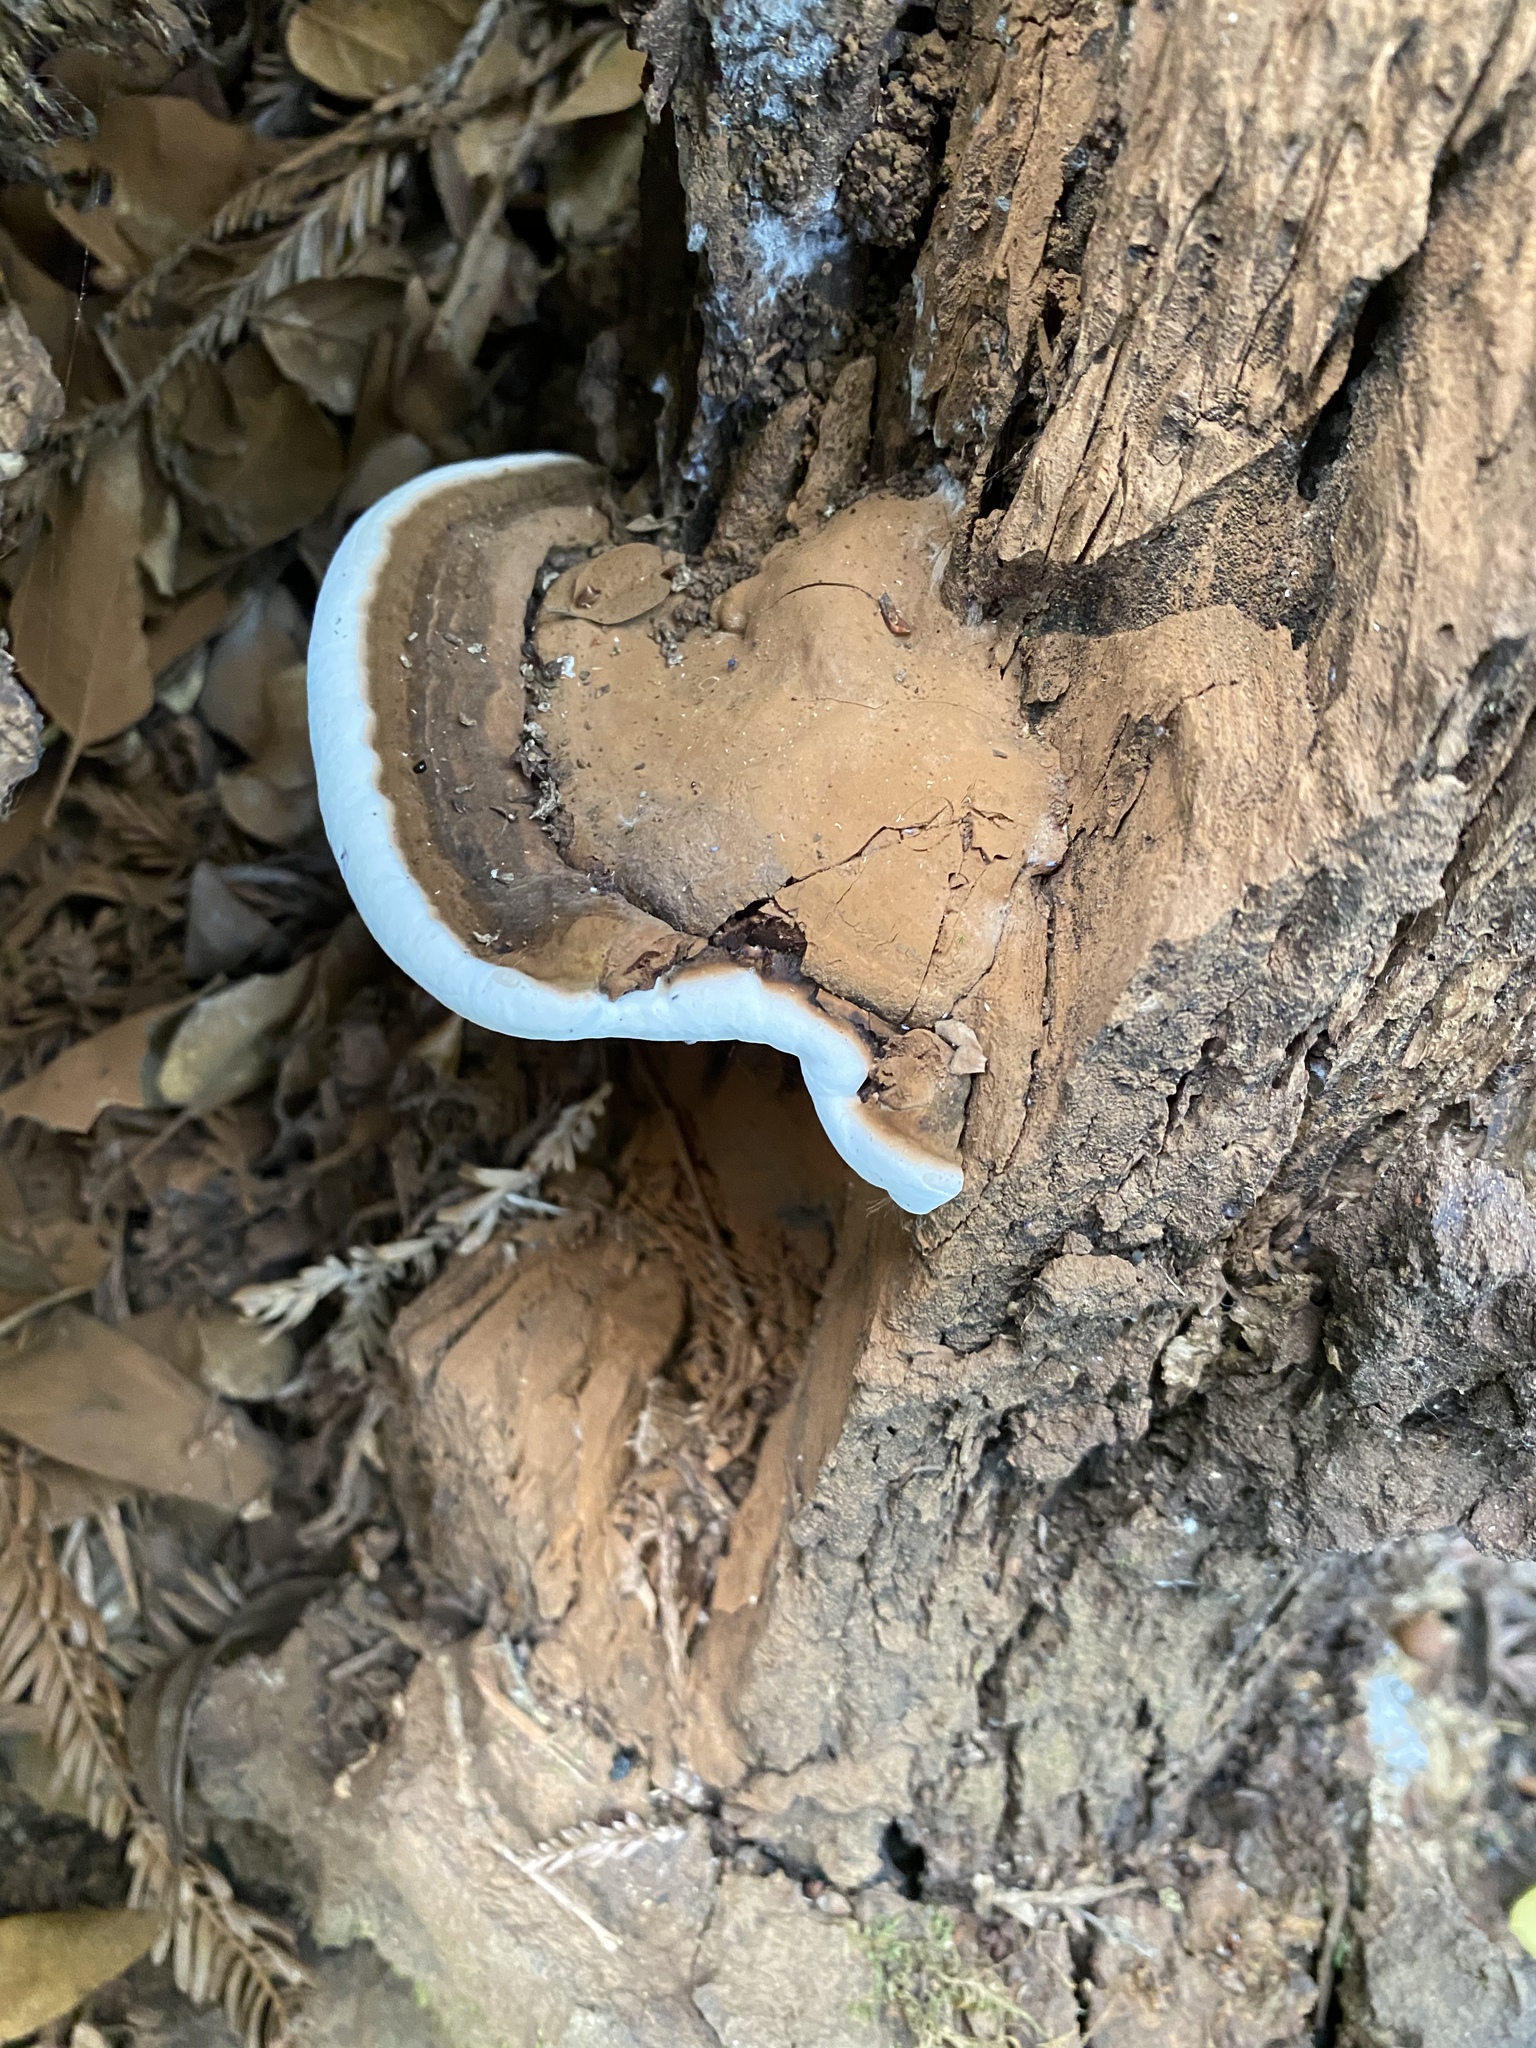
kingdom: Fungi
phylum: Basidiomycota
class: Agaricomycetes
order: Polyporales
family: Polyporaceae
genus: Ganoderma
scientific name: Ganoderma brownii
